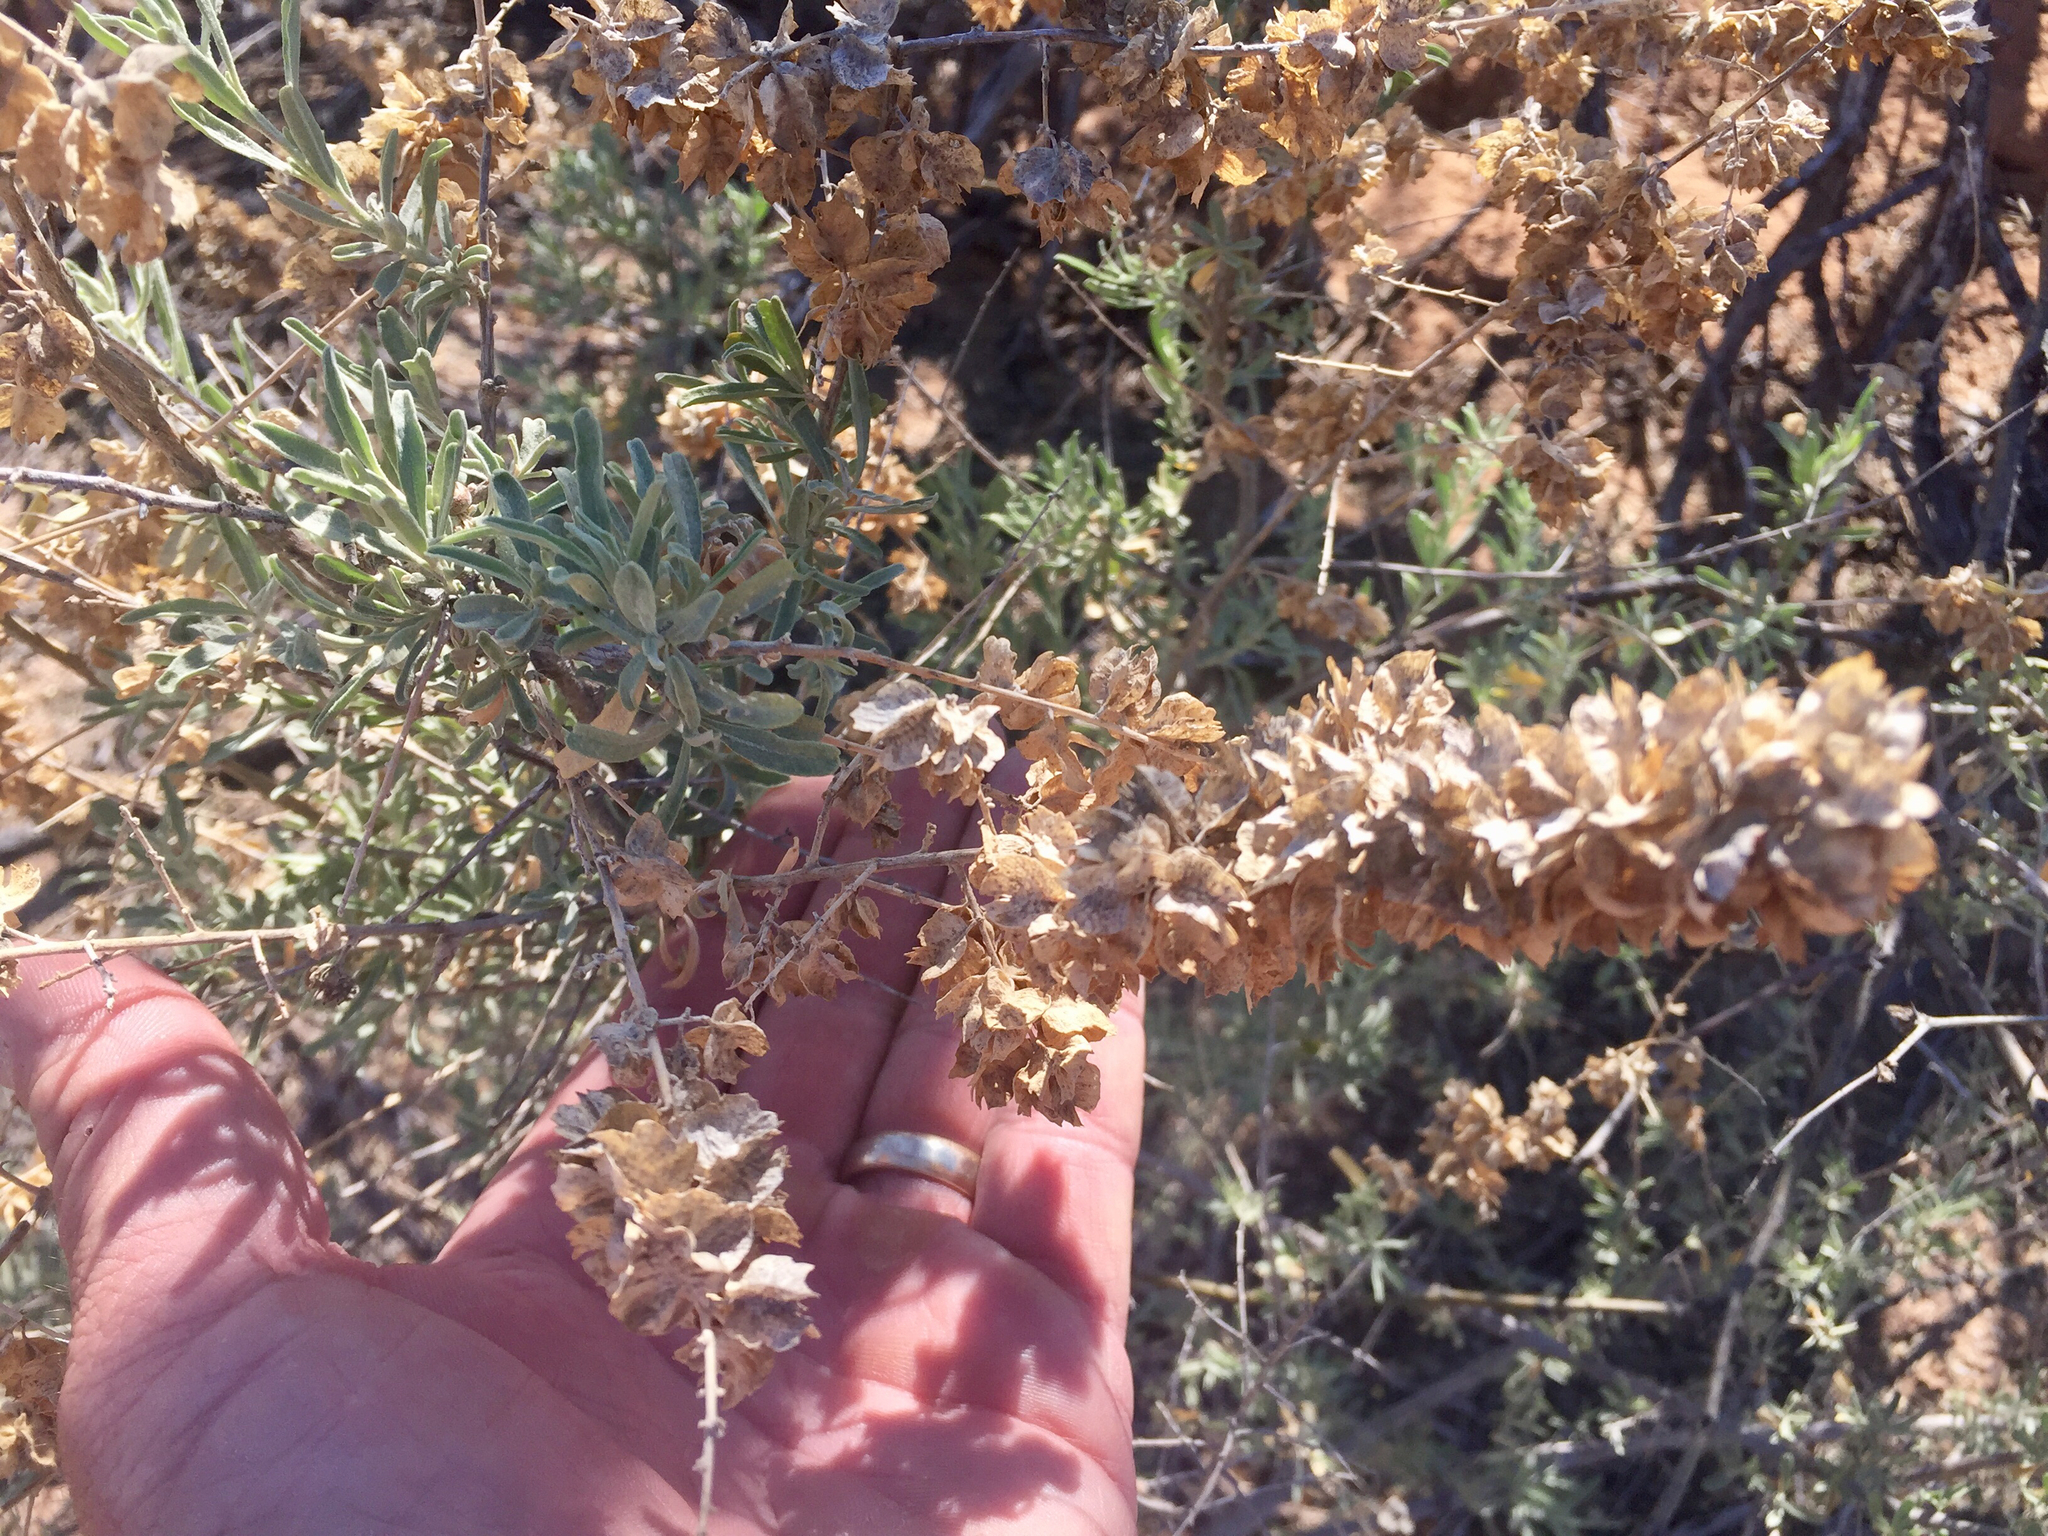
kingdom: Plantae
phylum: Tracheophyta
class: Magnoliopsida
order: Caryophyllales
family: Amaranthaceae
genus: Atriplex
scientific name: Atriplex canescens
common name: Four-wing saltbush
